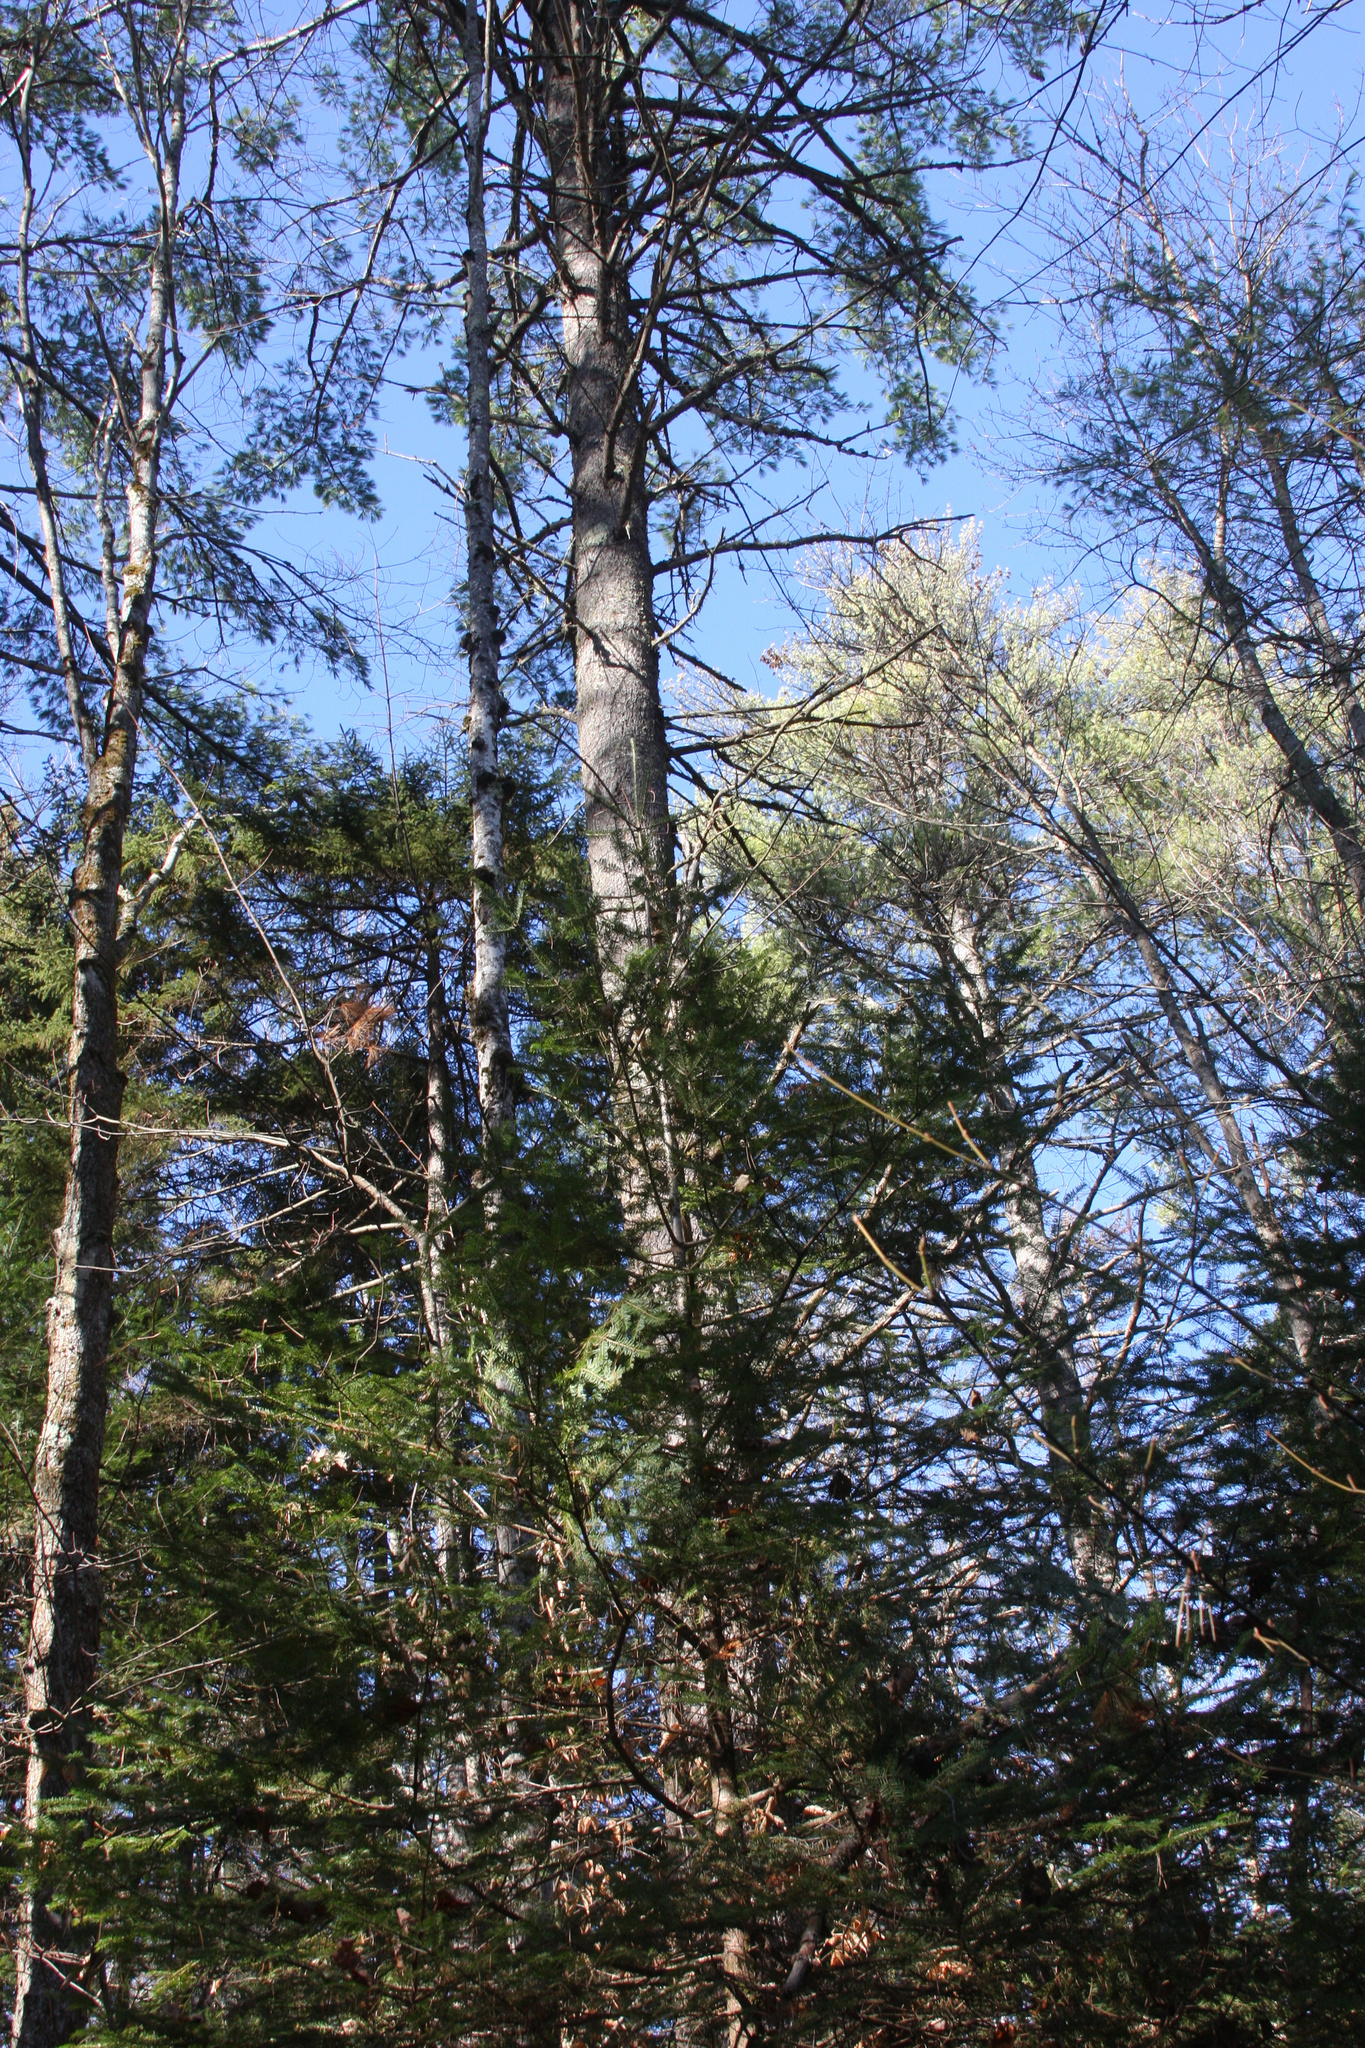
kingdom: Plantae
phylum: Tracheophyta
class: Pinopsida
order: Pinales
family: Pinaceae
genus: Pinus
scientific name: Pinus strobus
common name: Weymouth pine
